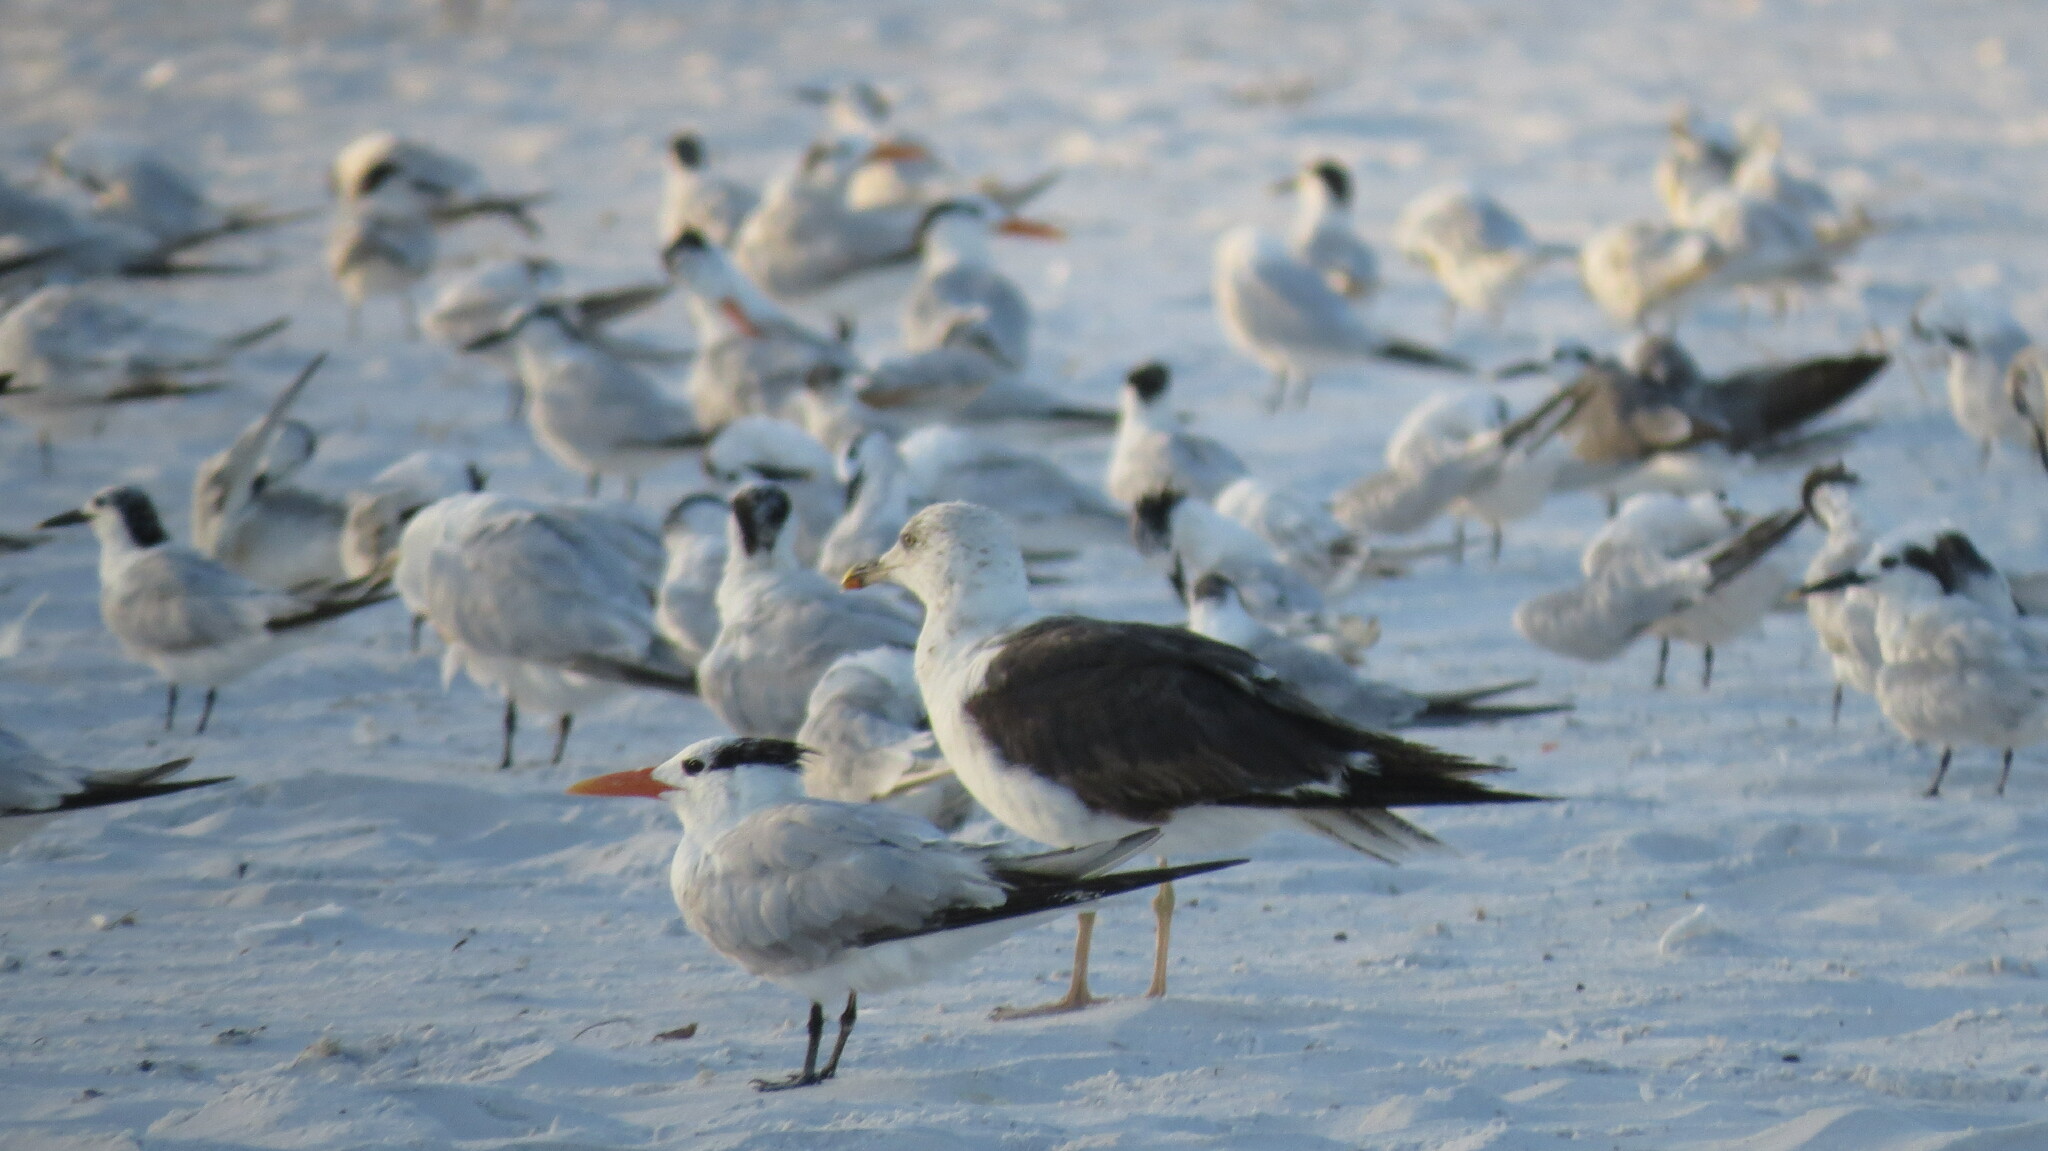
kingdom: Animalia
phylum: Chordata
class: Aves
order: Charadriiformes
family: Laridae
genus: Thalasseus
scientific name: Thalasseus maximus
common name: Royal tern
